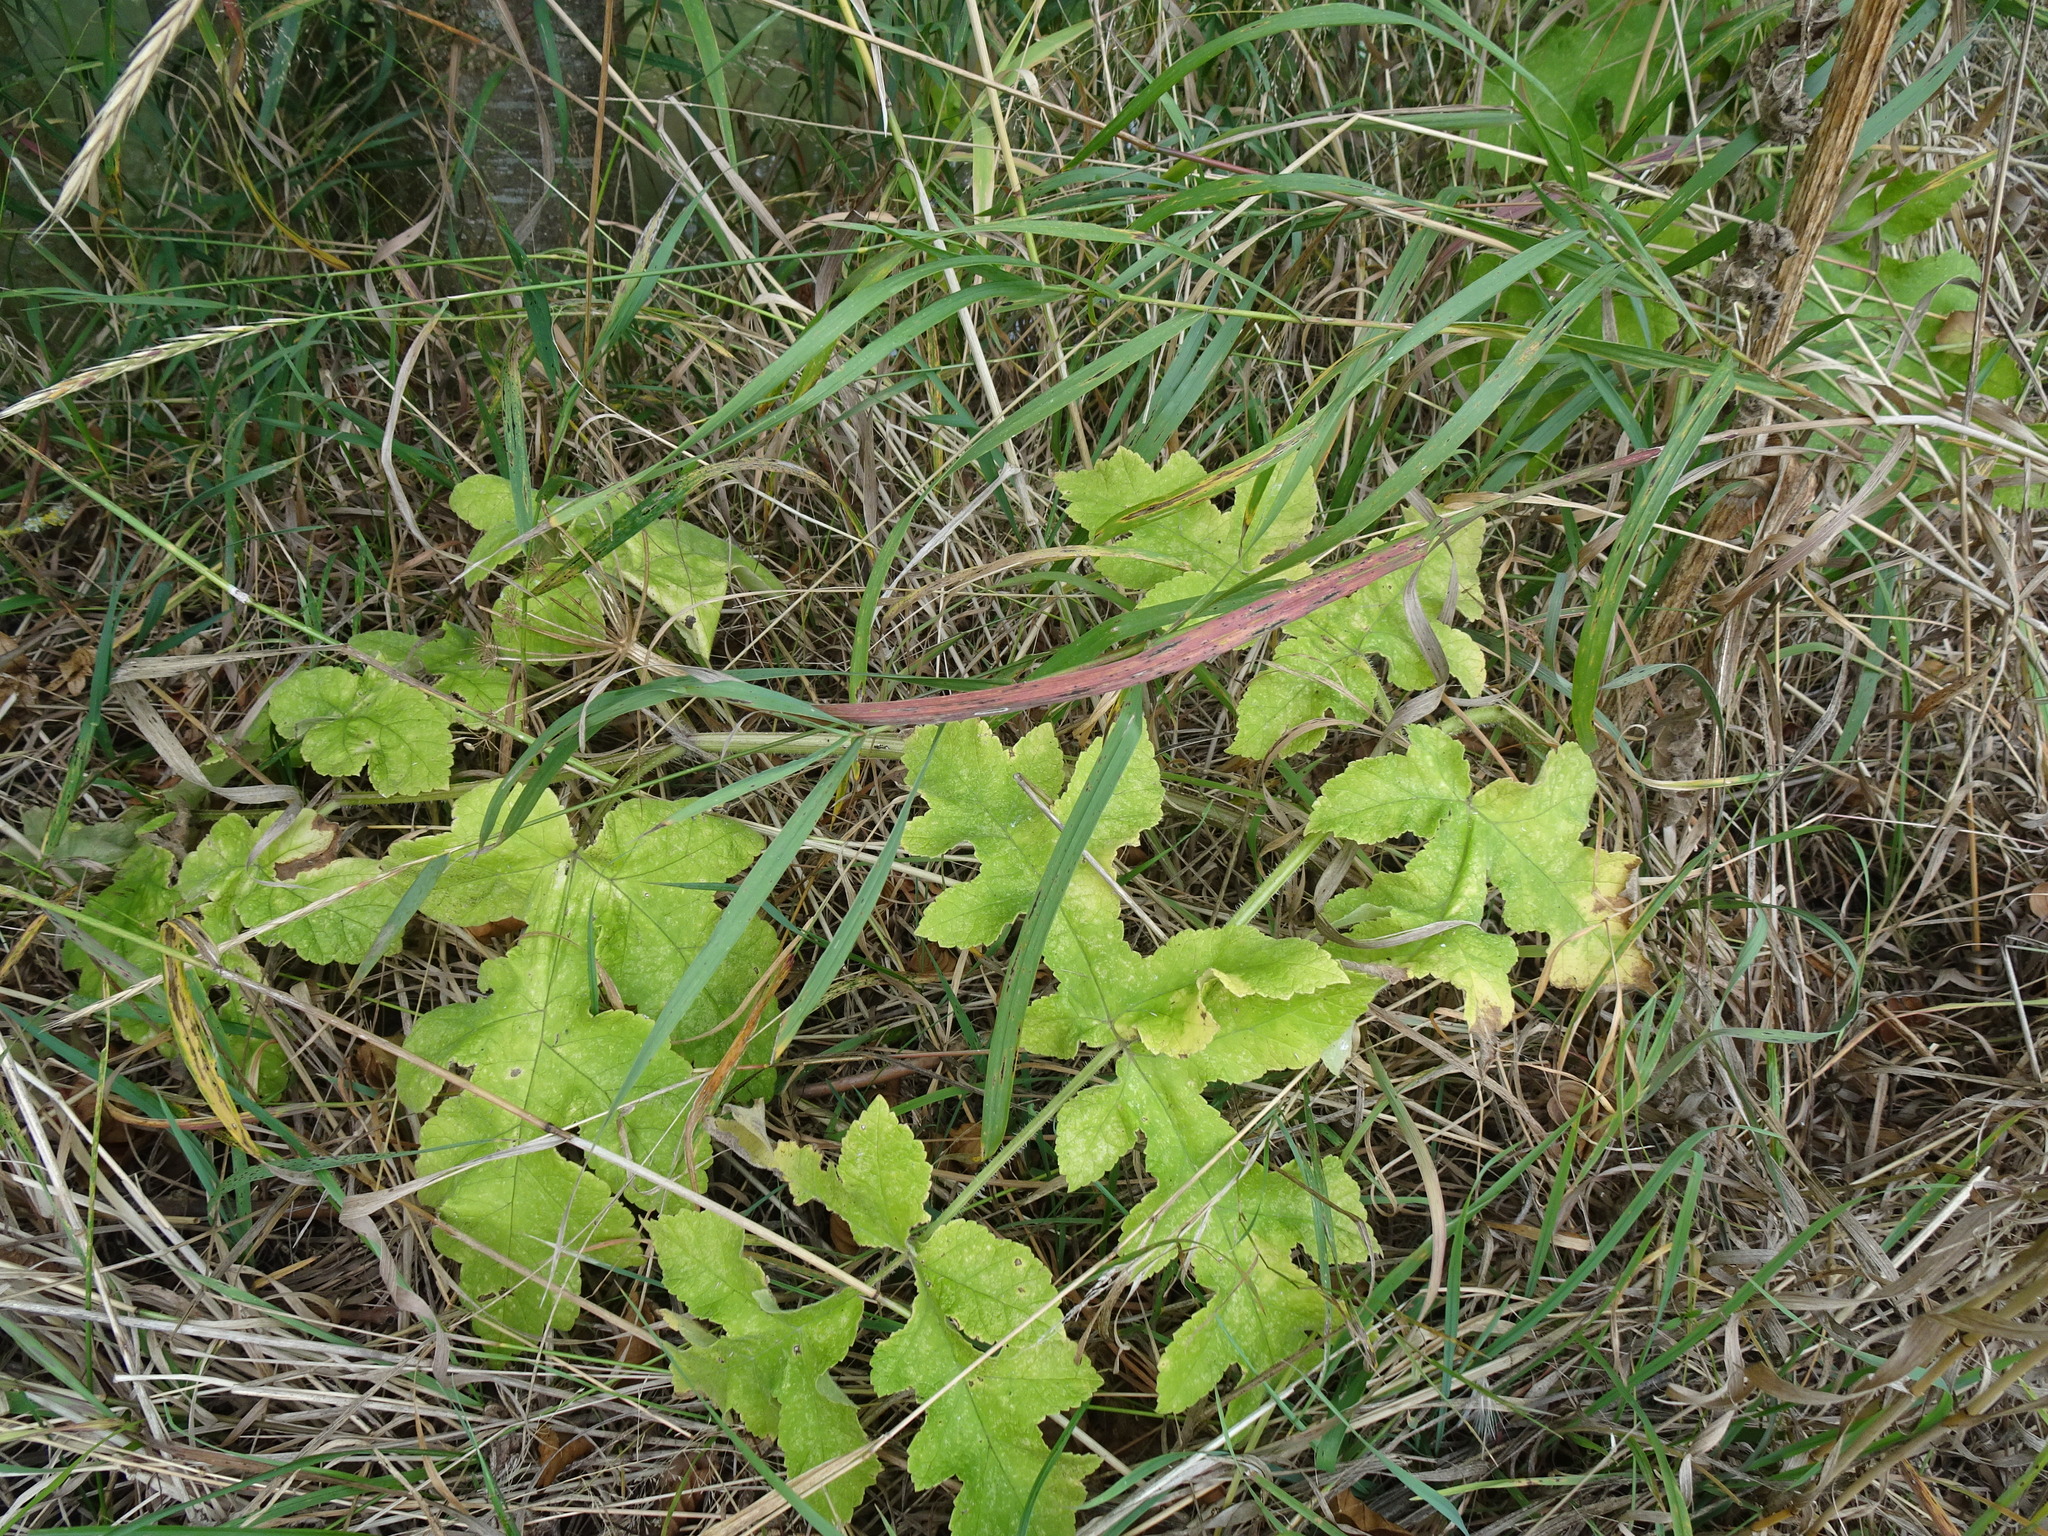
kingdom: Plantae
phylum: Tracheophyta
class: Magnoliopsida
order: Apiales
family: Apiaceae
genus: Heracleum
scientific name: Heracleum sphondylium
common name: Hogweed
